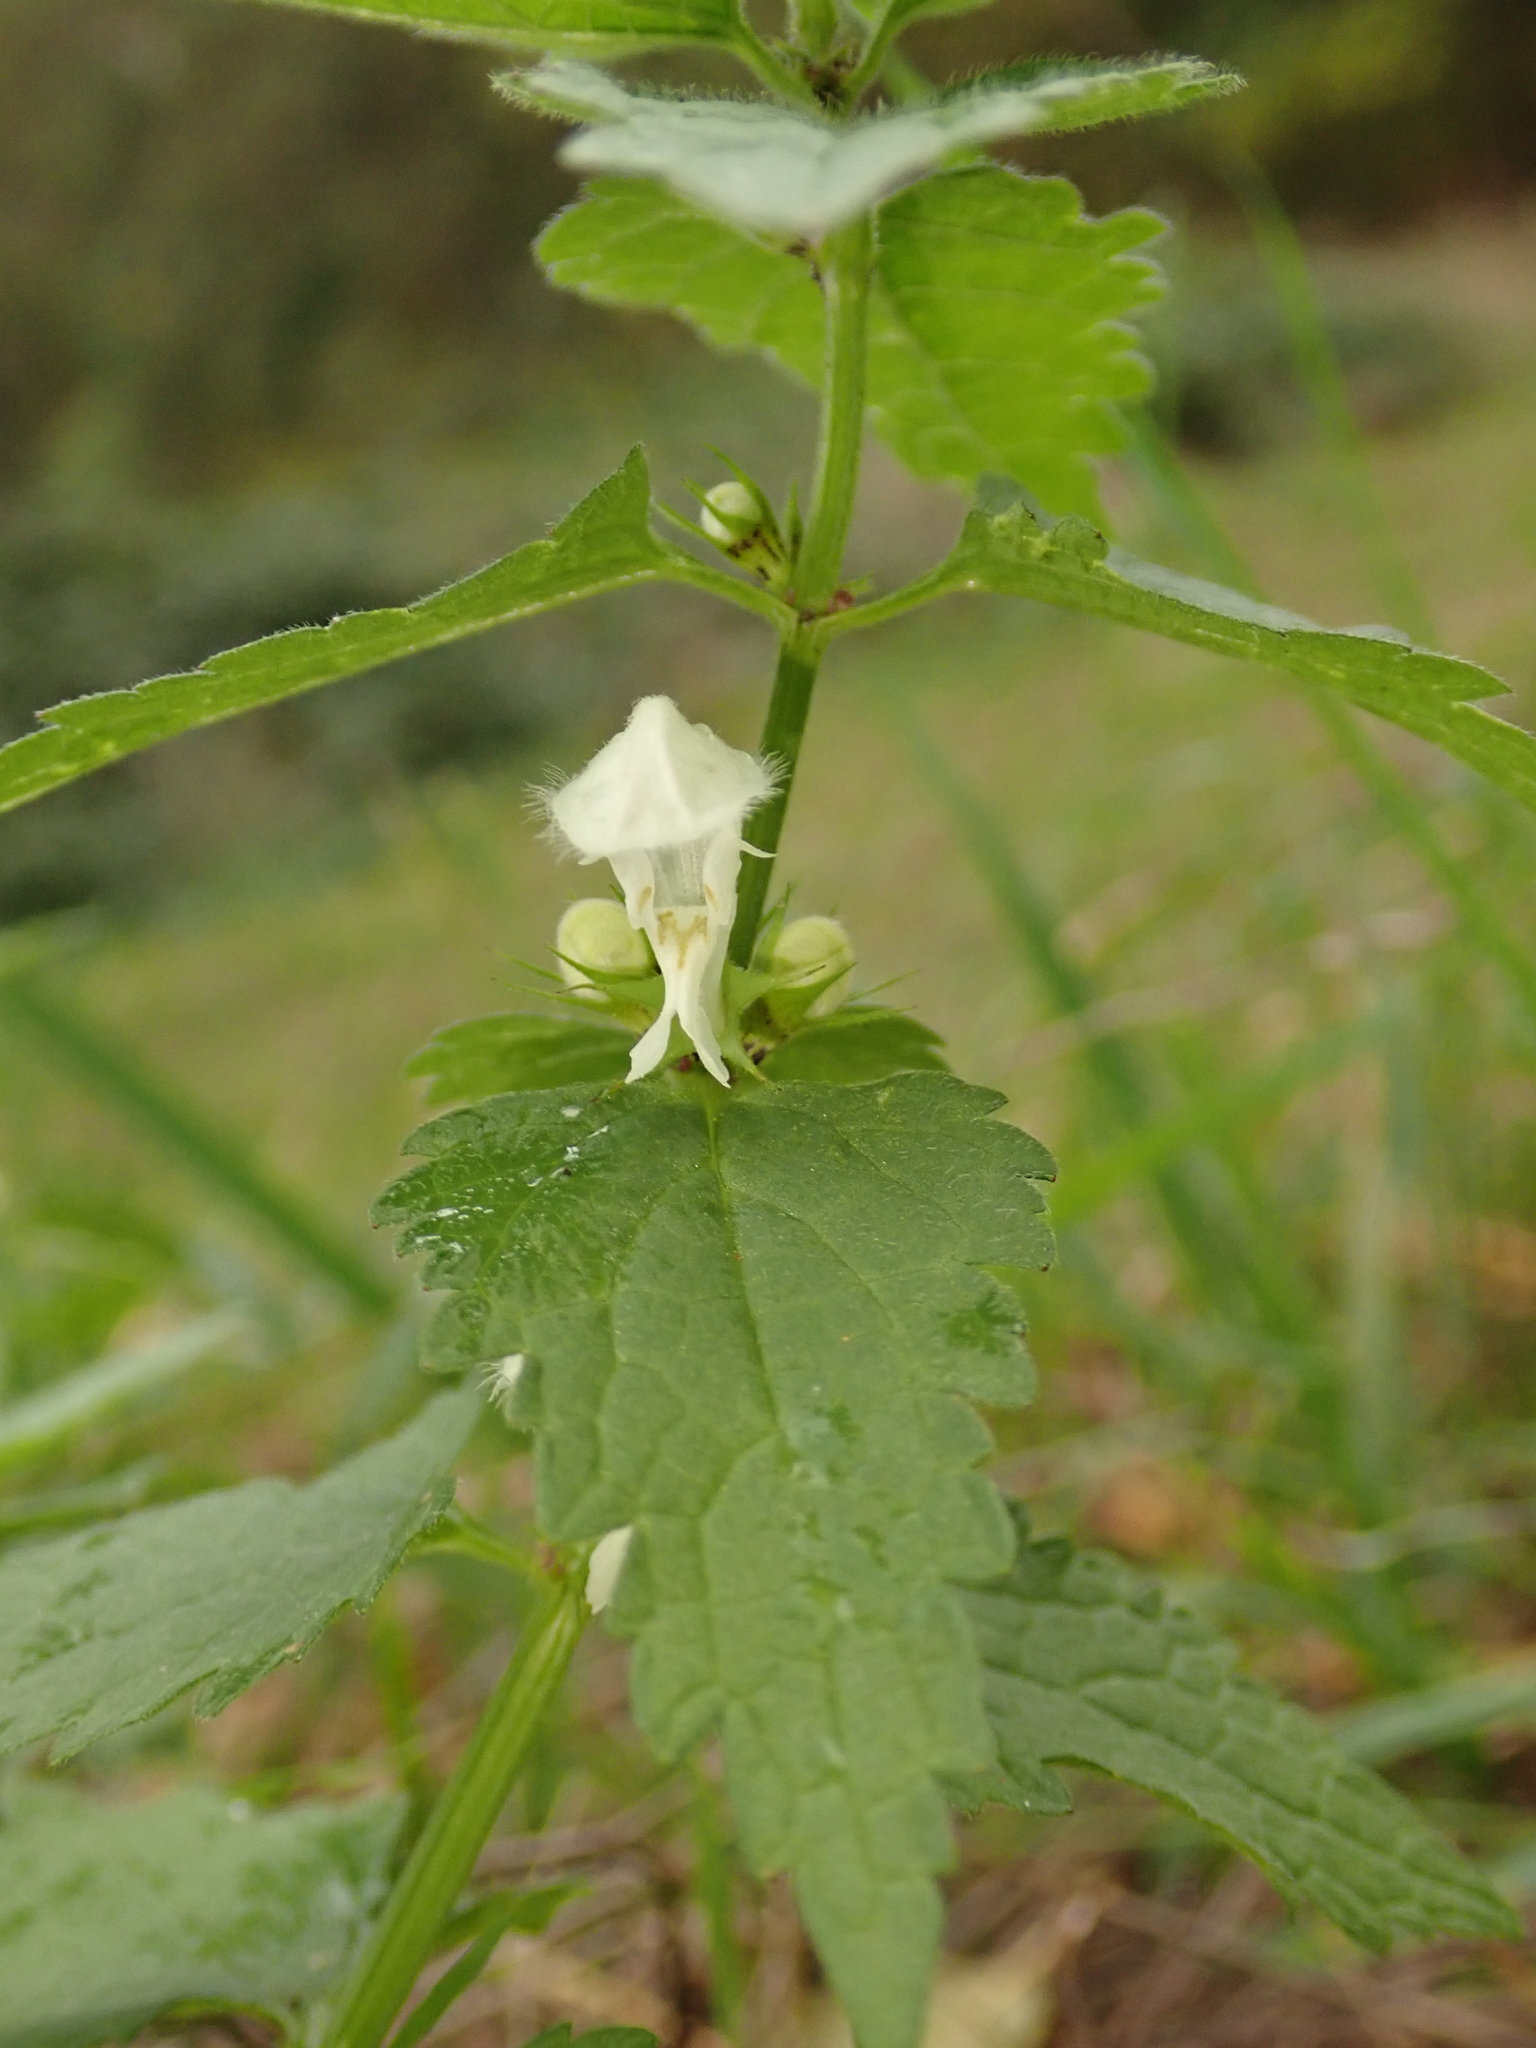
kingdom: Plantae
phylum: Tracheophyta
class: Magnoliopsida
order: Lamiales
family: Lamiaceae
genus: Lamium
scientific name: Lamium album
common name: White dead-nettle
